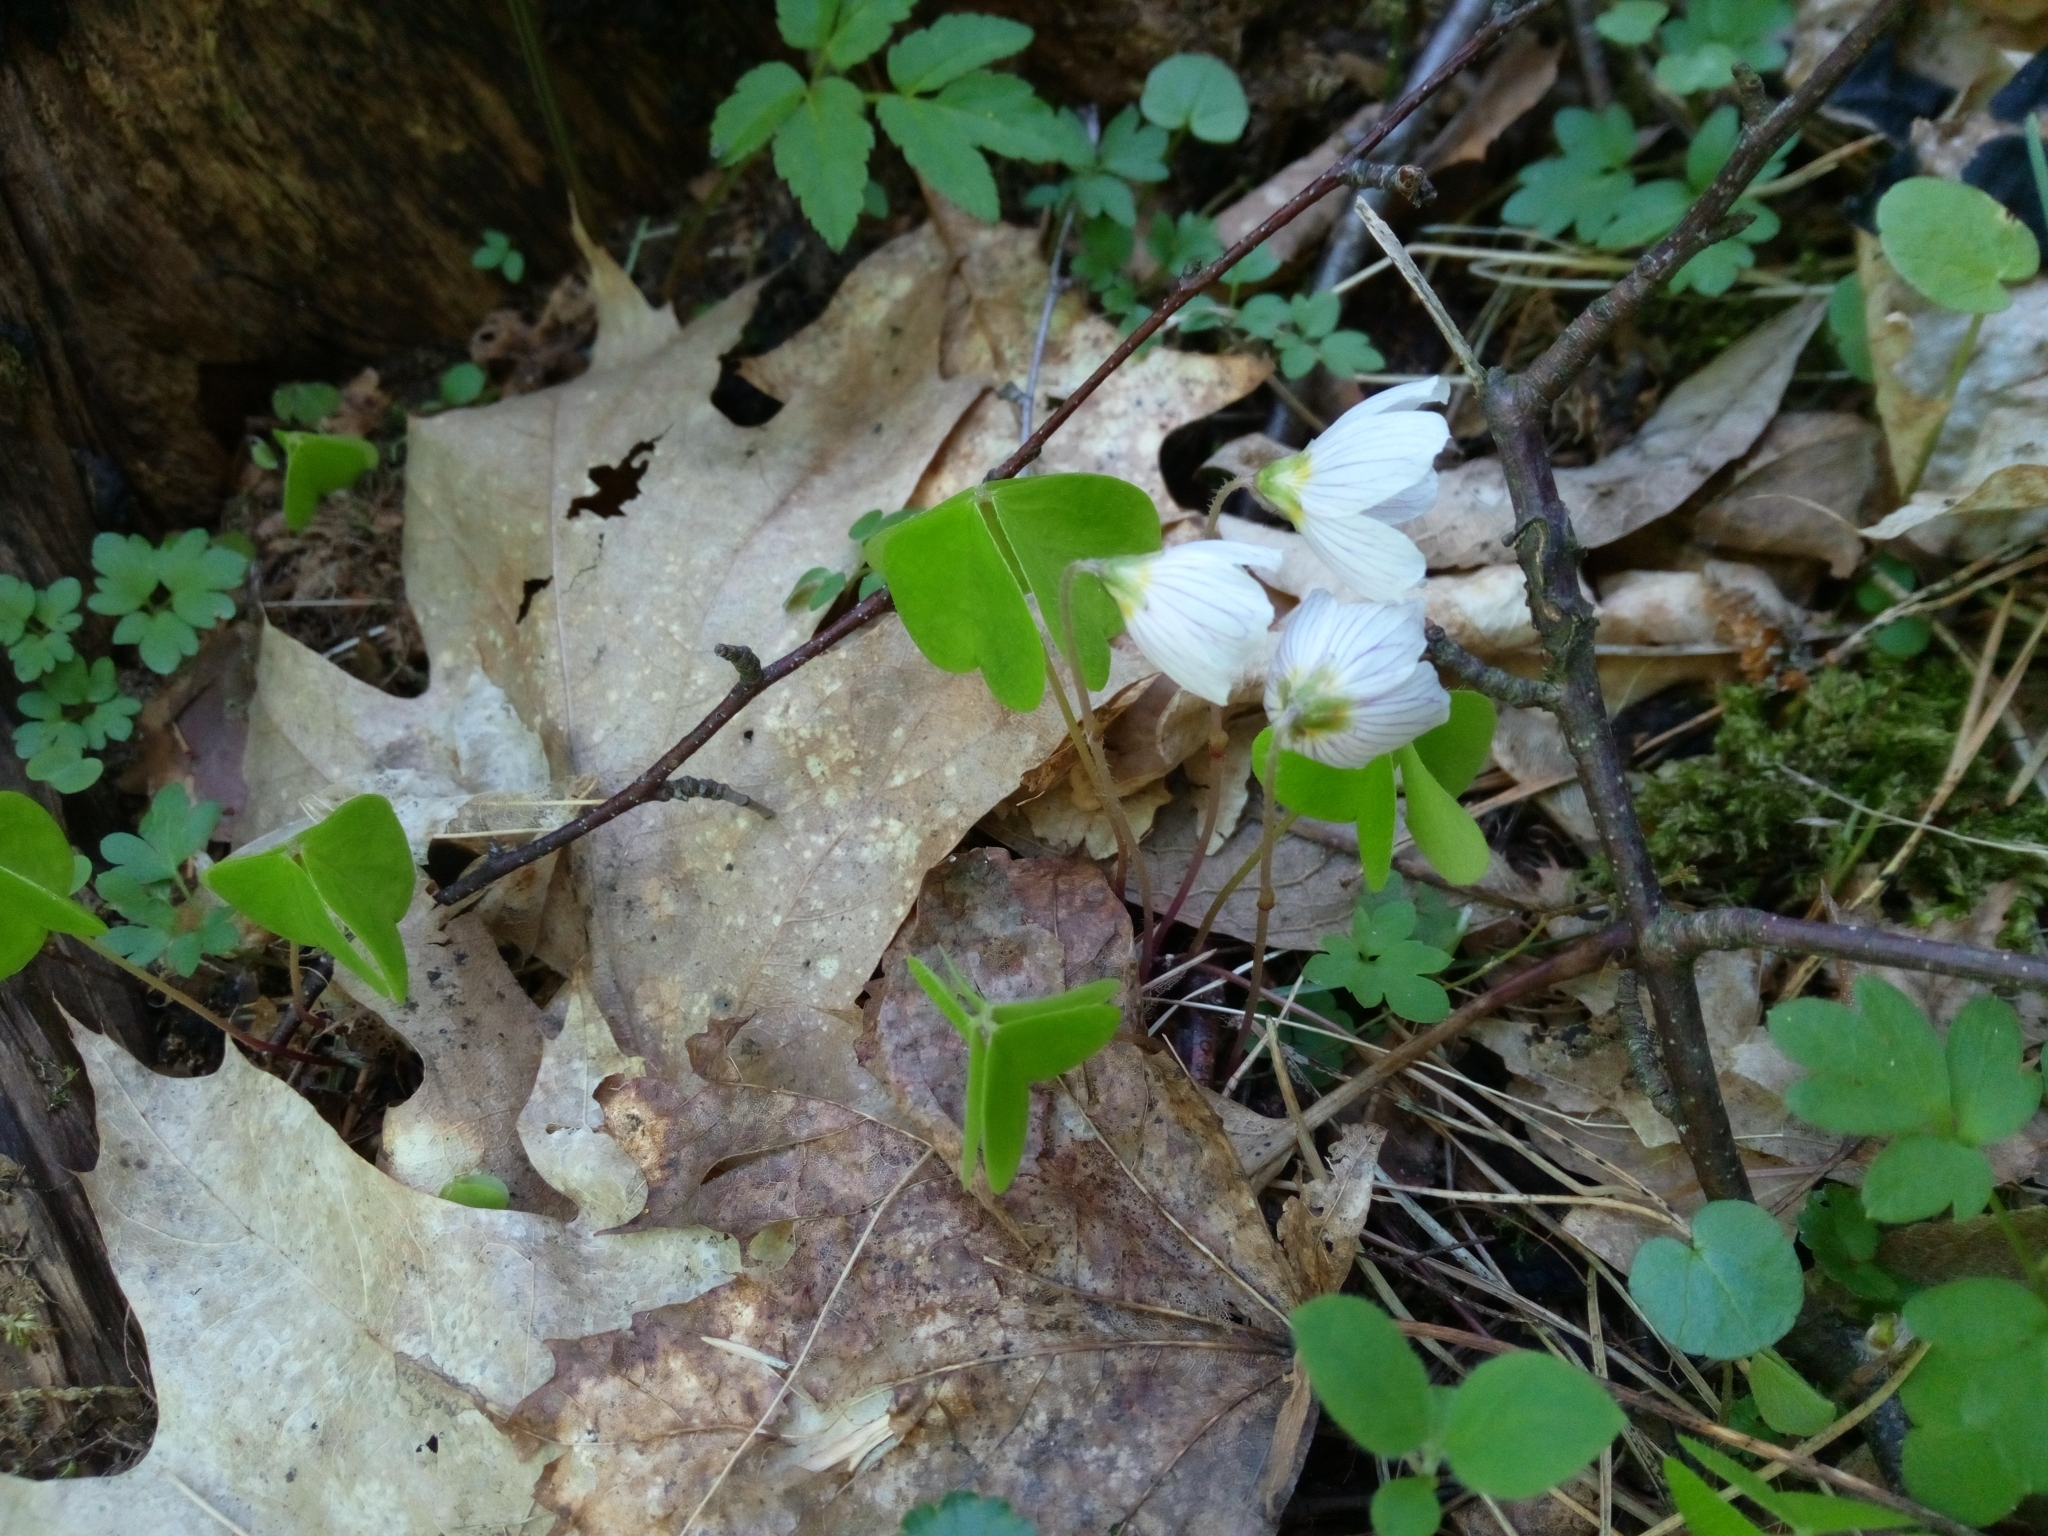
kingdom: Plantae
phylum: Tracheophyta
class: Magnoliopsida
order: Oxalidales
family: Oxalidaceae
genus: Oxalis
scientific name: Oxalis acetosella
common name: Wood-sorrel
